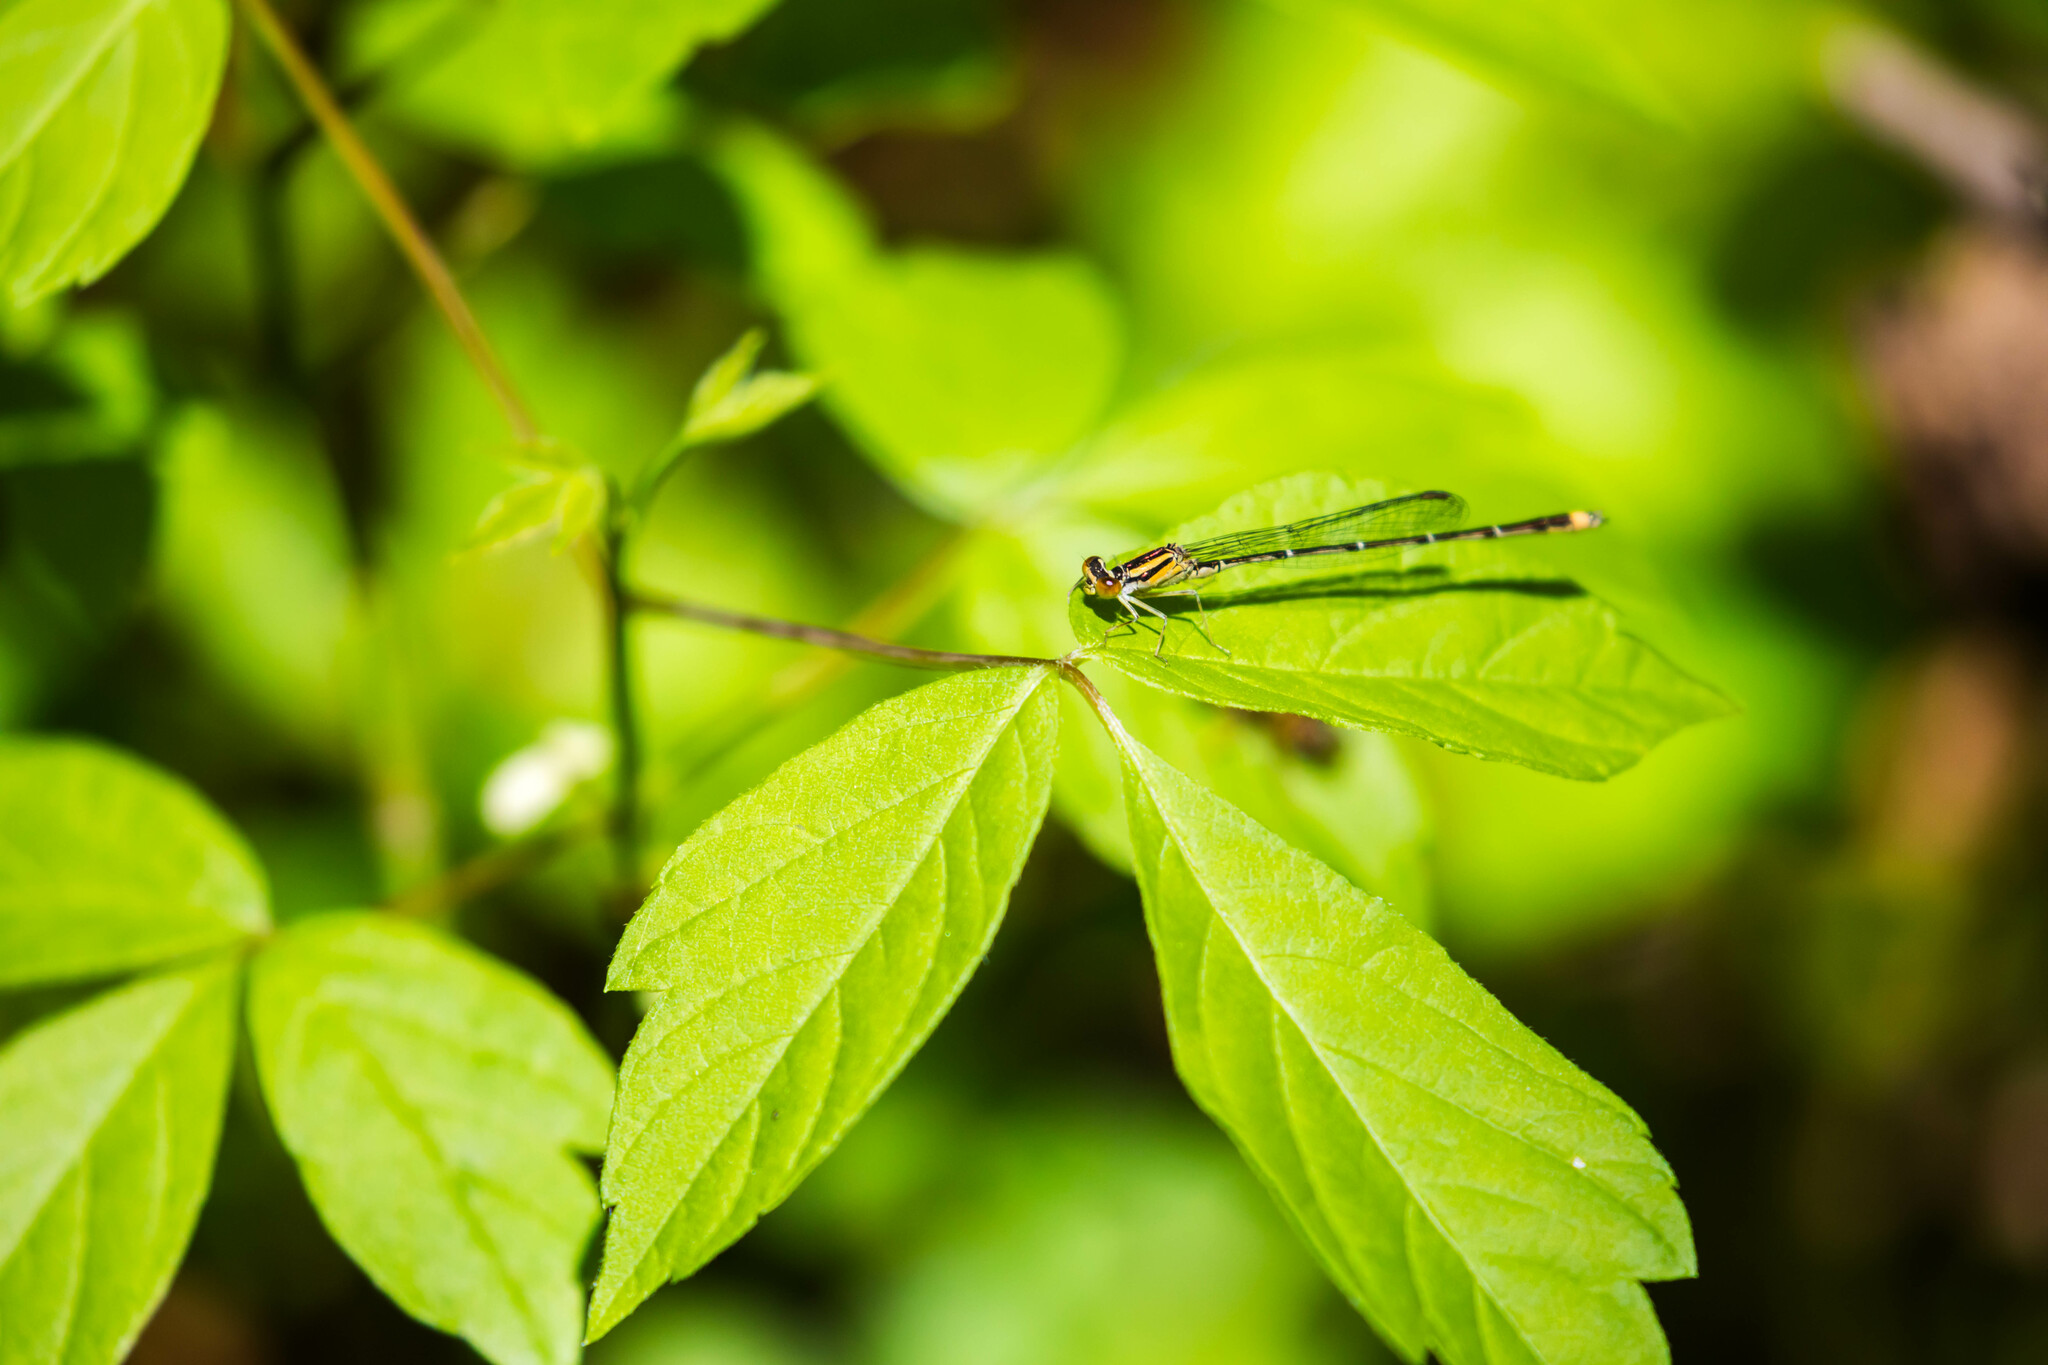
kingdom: Animalia
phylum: Arthropoda
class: Insecta
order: Odonata
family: Coenagrionidae
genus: Enallagma
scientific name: Enallagma signatum
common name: Orange bluet
